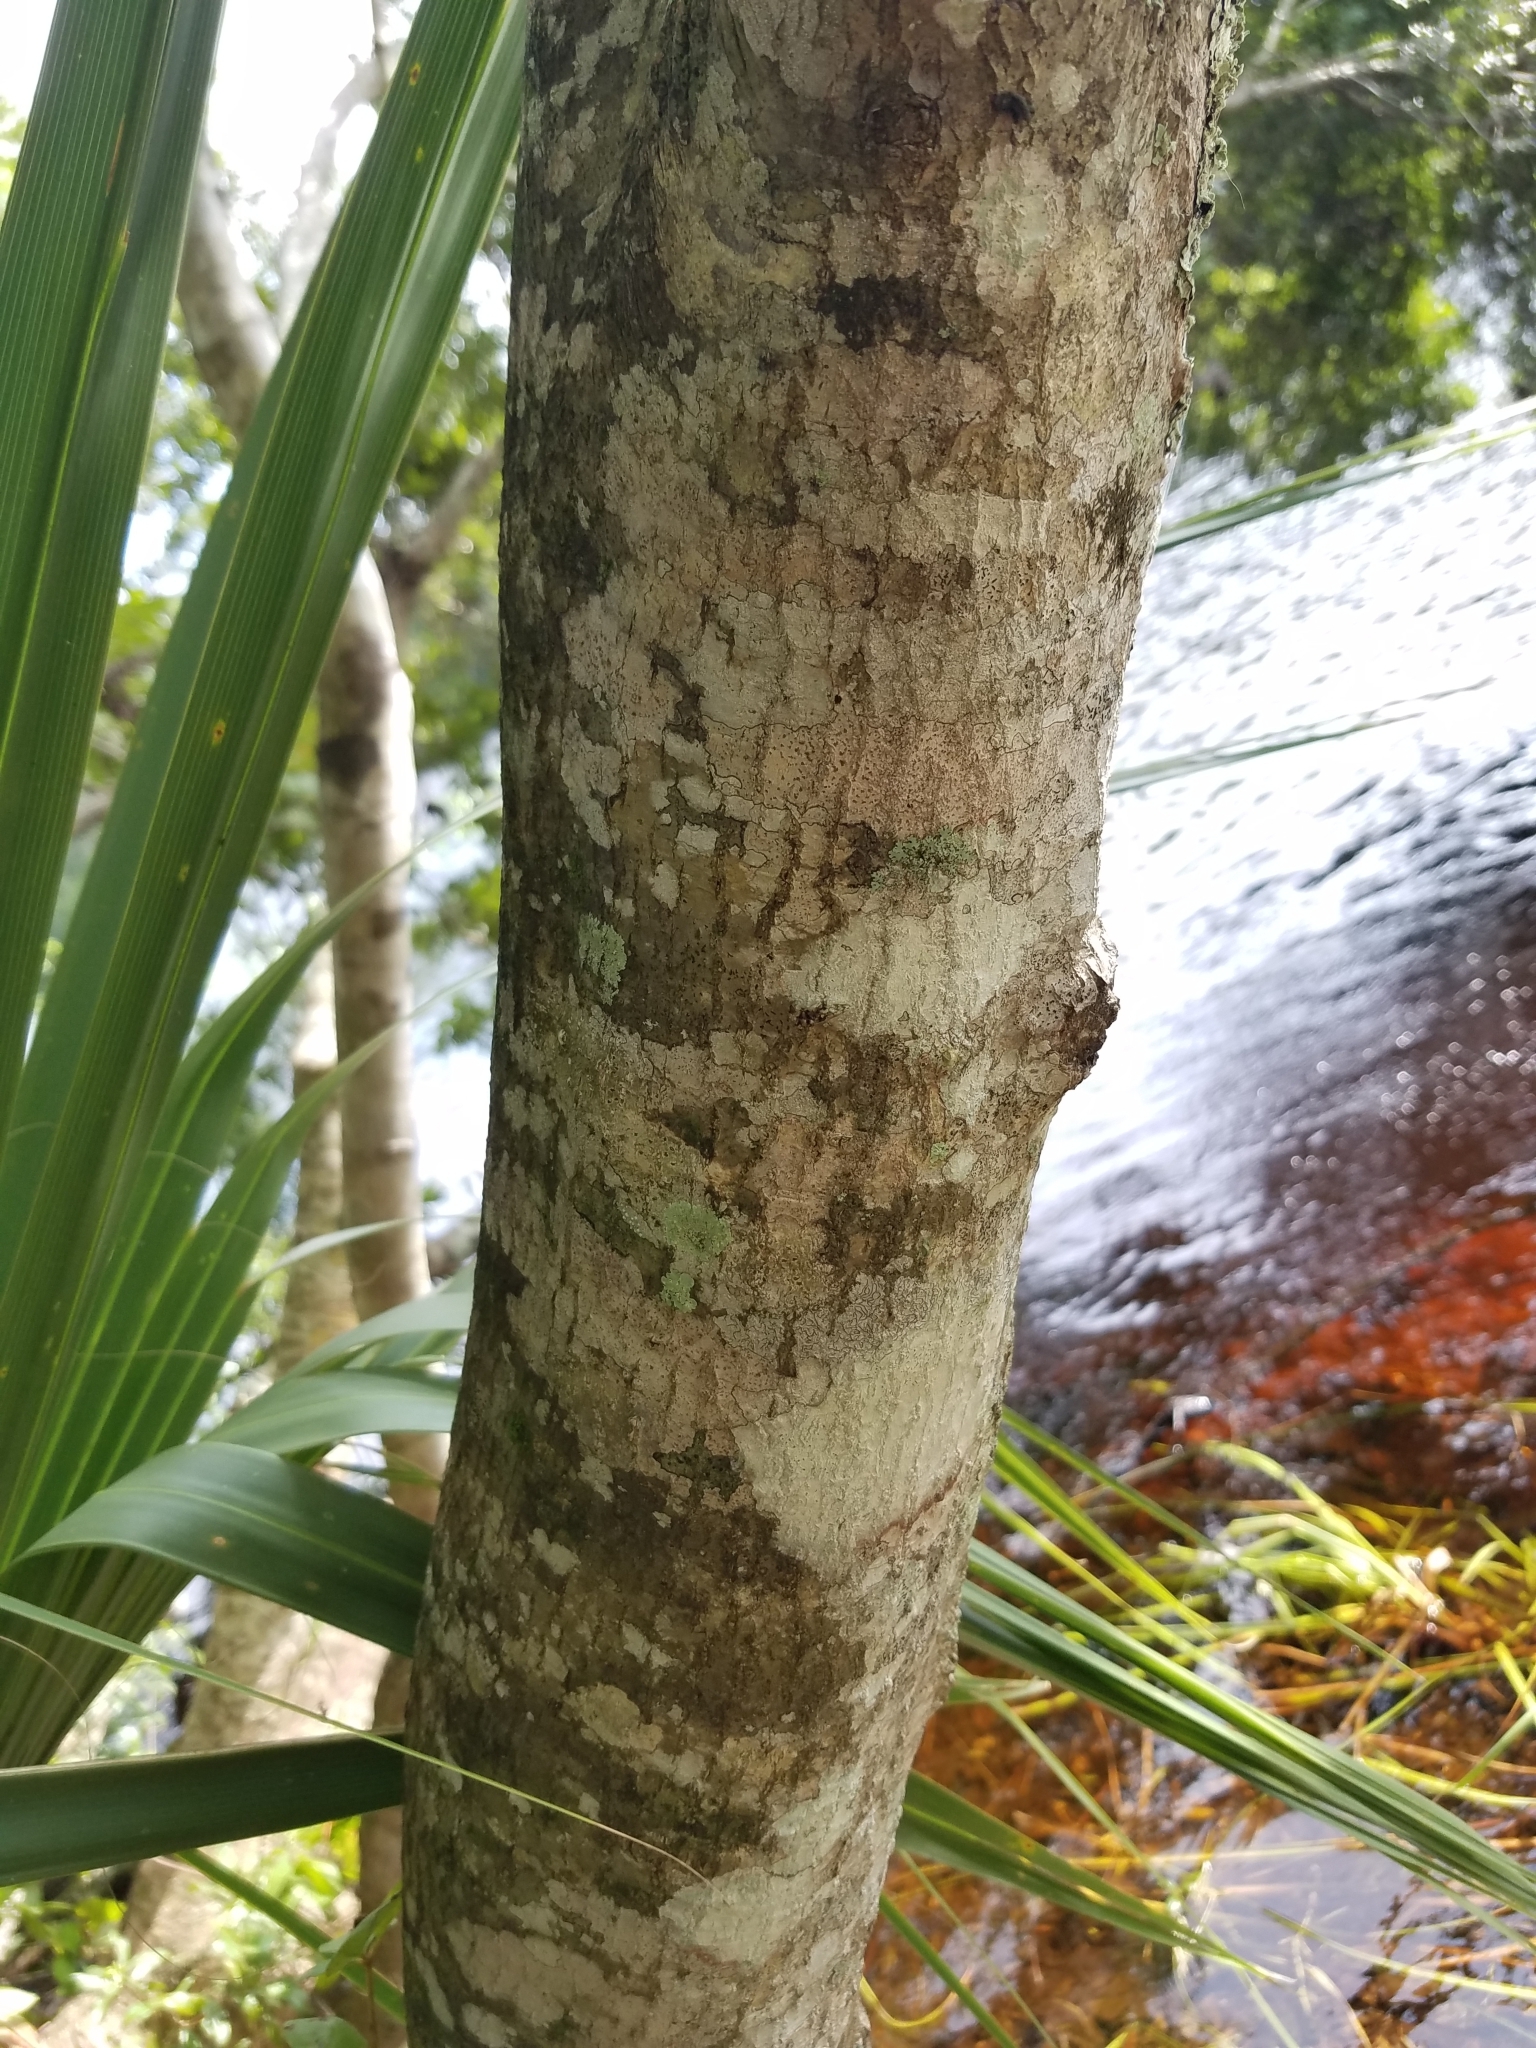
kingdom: Plantae
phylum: Tracheophyta
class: Magnoliopsida
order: Aquifoliales
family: Aquifoliaceae
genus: Ilex
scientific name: Ilex cassine
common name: Dahoon
